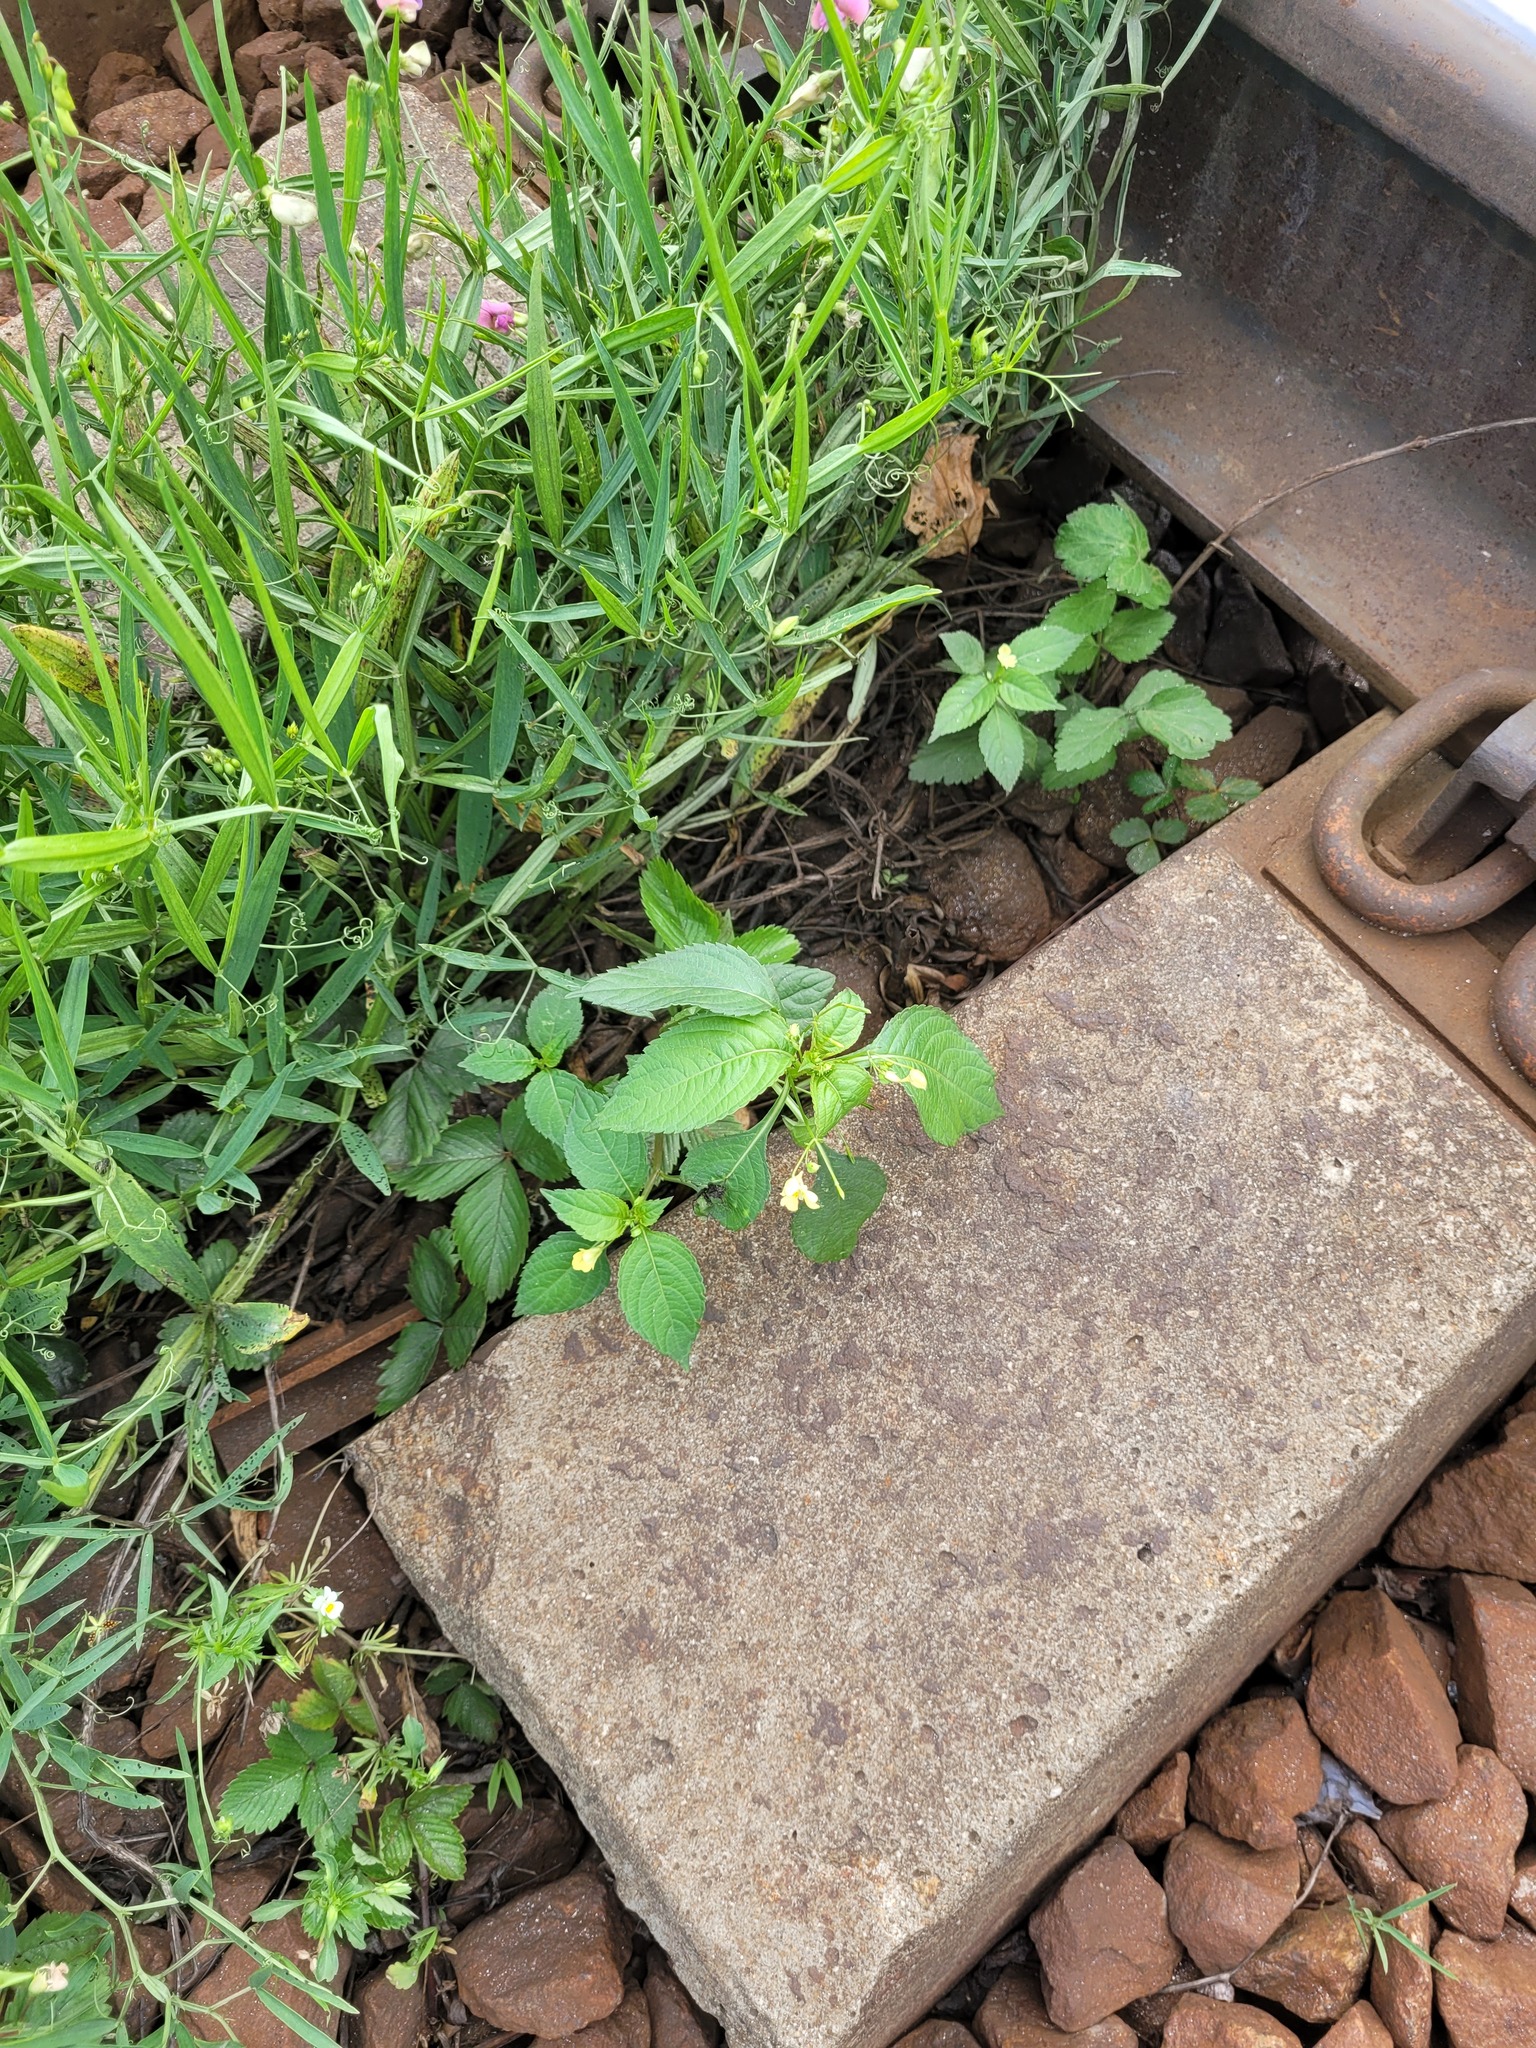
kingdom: Plantae
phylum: Tracheophyta
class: Magnoliopsida
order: Ericales
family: Balsaminaceae
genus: Impatiens
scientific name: Impatiens parviflora
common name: Small balsam
